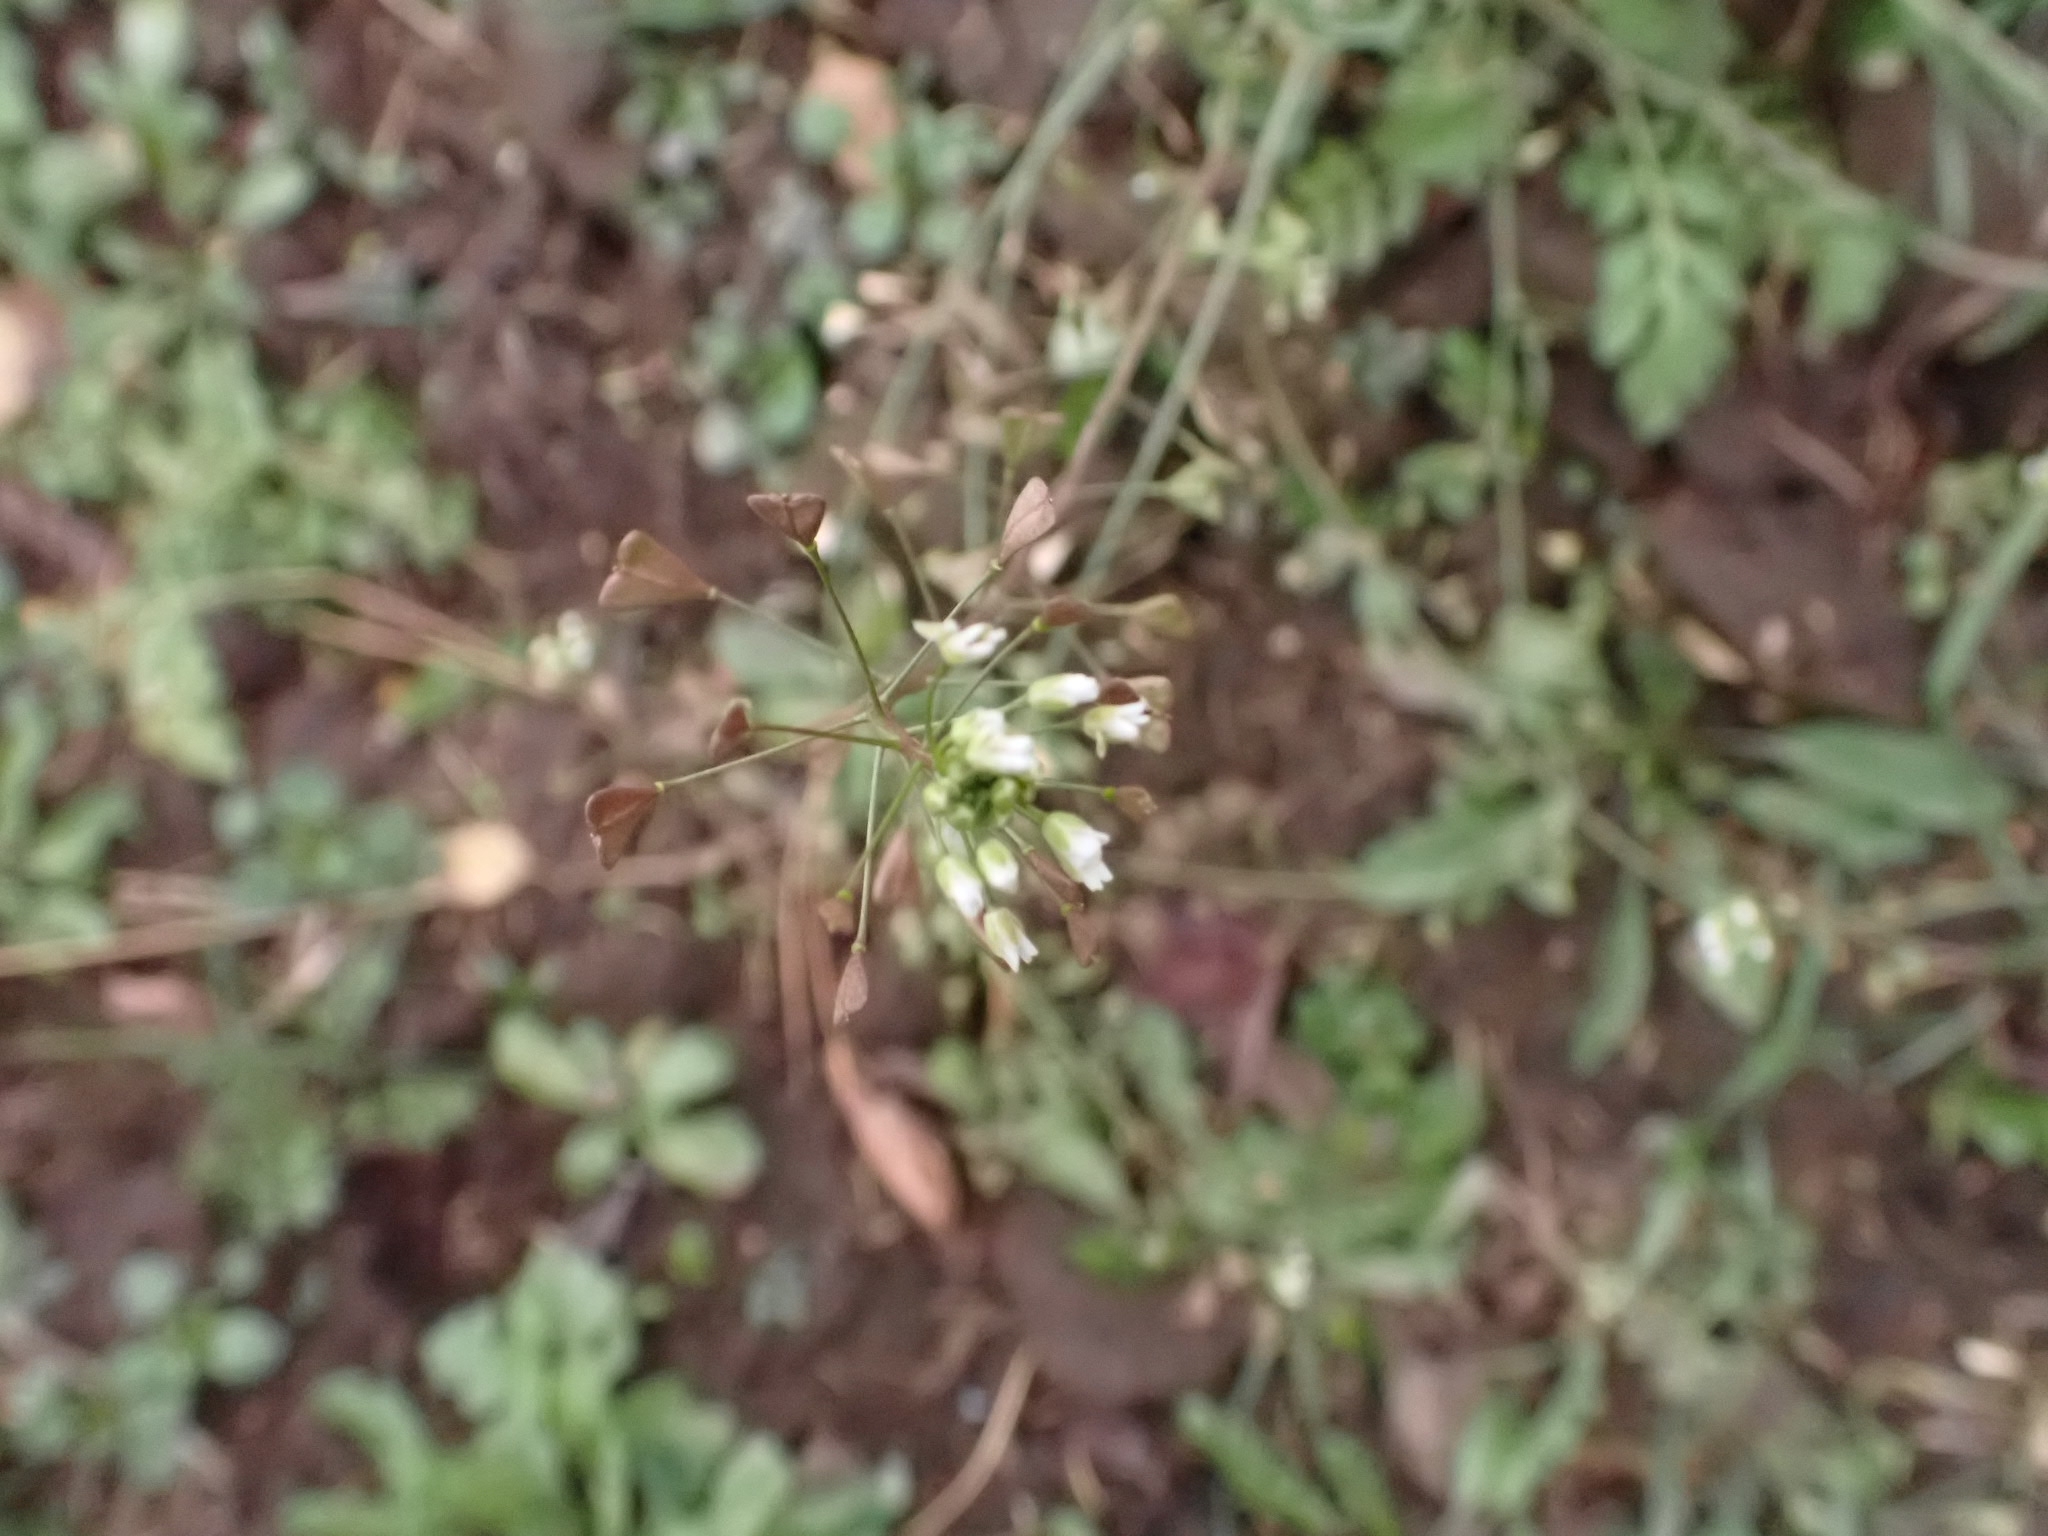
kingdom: Plantae
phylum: Tracheophyta
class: Magnoliopsida
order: Brassicales
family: Brassicaceae
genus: Capsella
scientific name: Capsella bursa-pastoris
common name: Shepherd's purse
